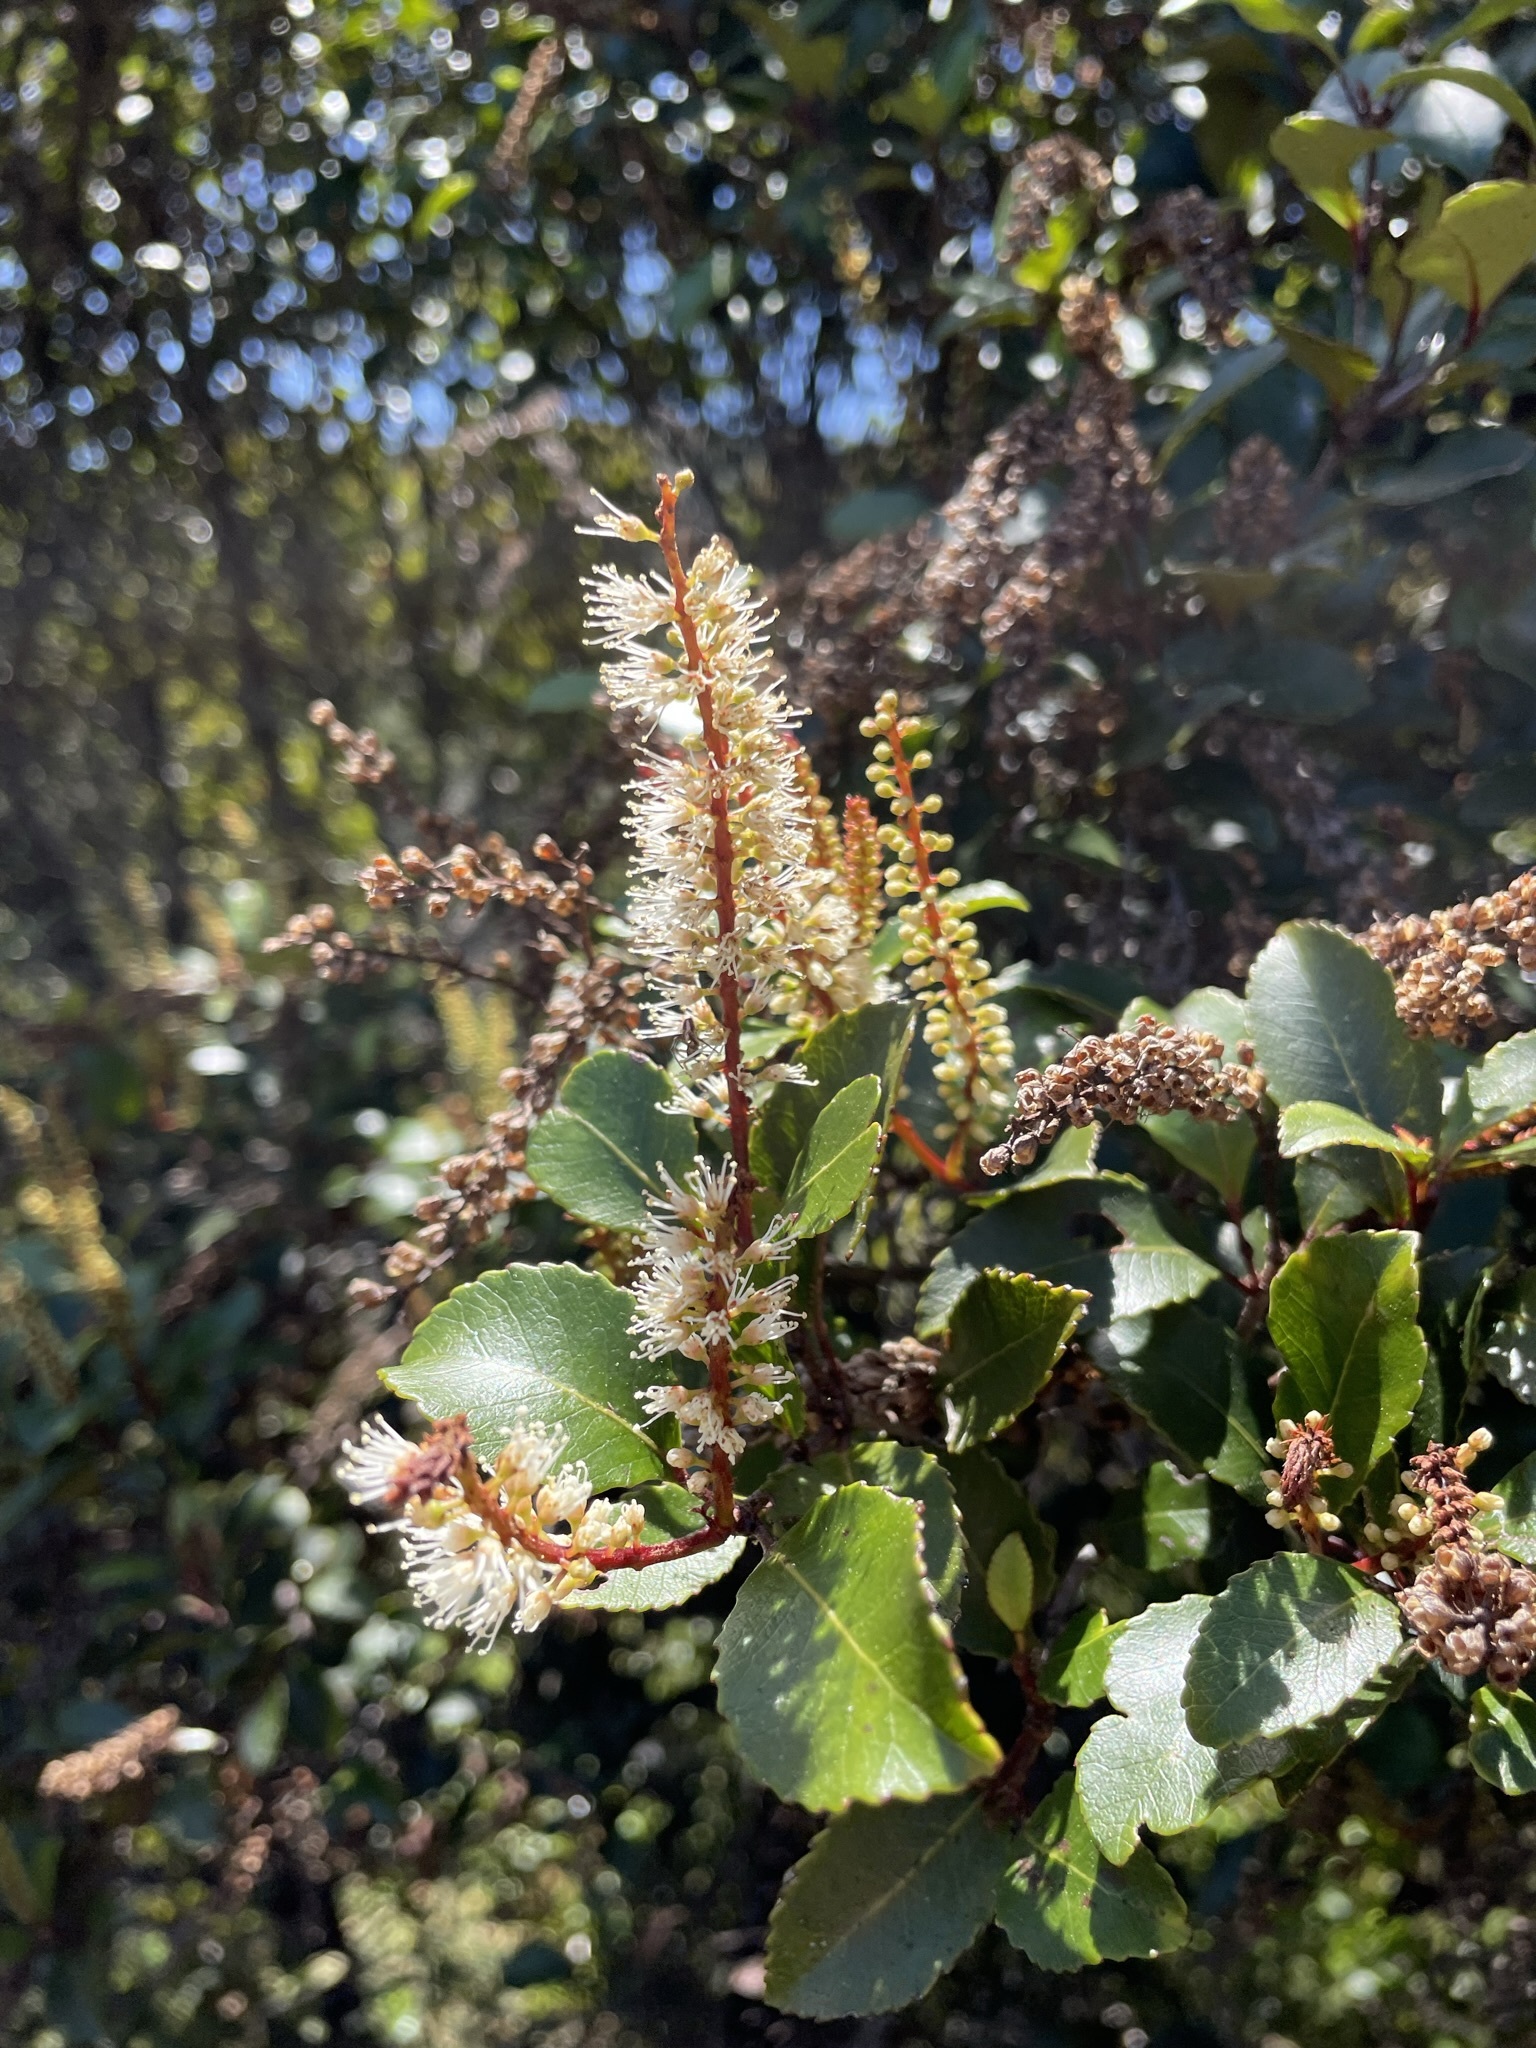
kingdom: Plantae
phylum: Tracheophyta
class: Magnoliopsida
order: Oxalidales
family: Cunoniaceae
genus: Pterophylla
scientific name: Pterophylla racemosa
